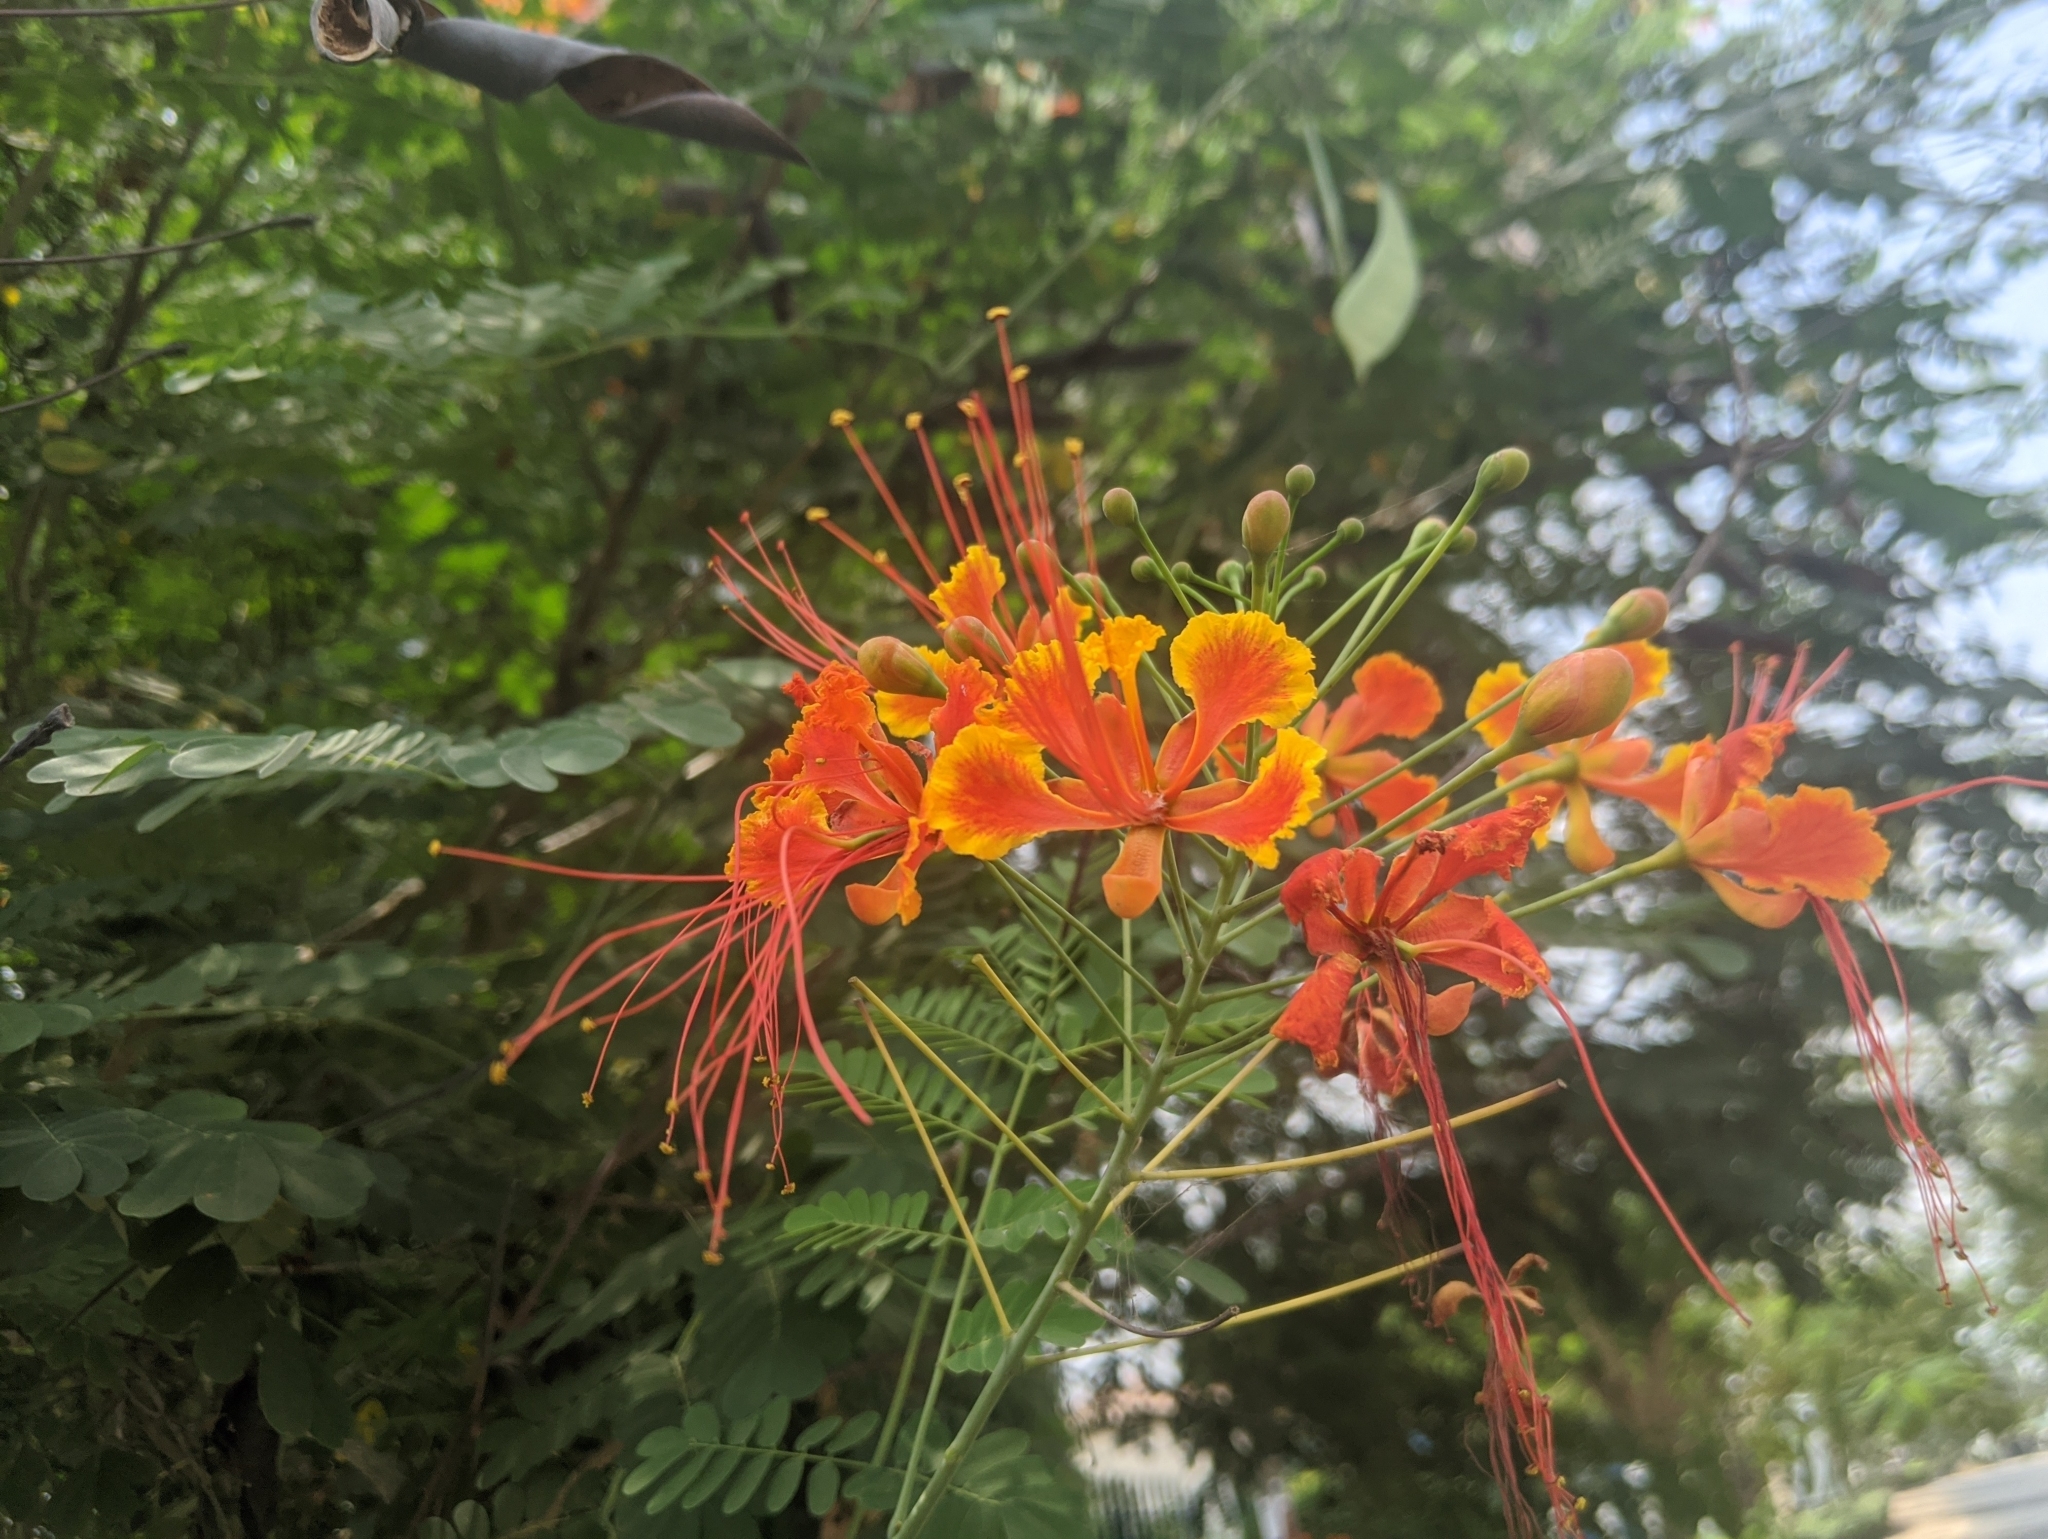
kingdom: Plantae
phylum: Tracheophyta
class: Magnoliopsida
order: Fabales
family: Fabaceae
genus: Caesalpinia
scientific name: Caesalpinia pulcherrima
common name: Pride-of-barbados
